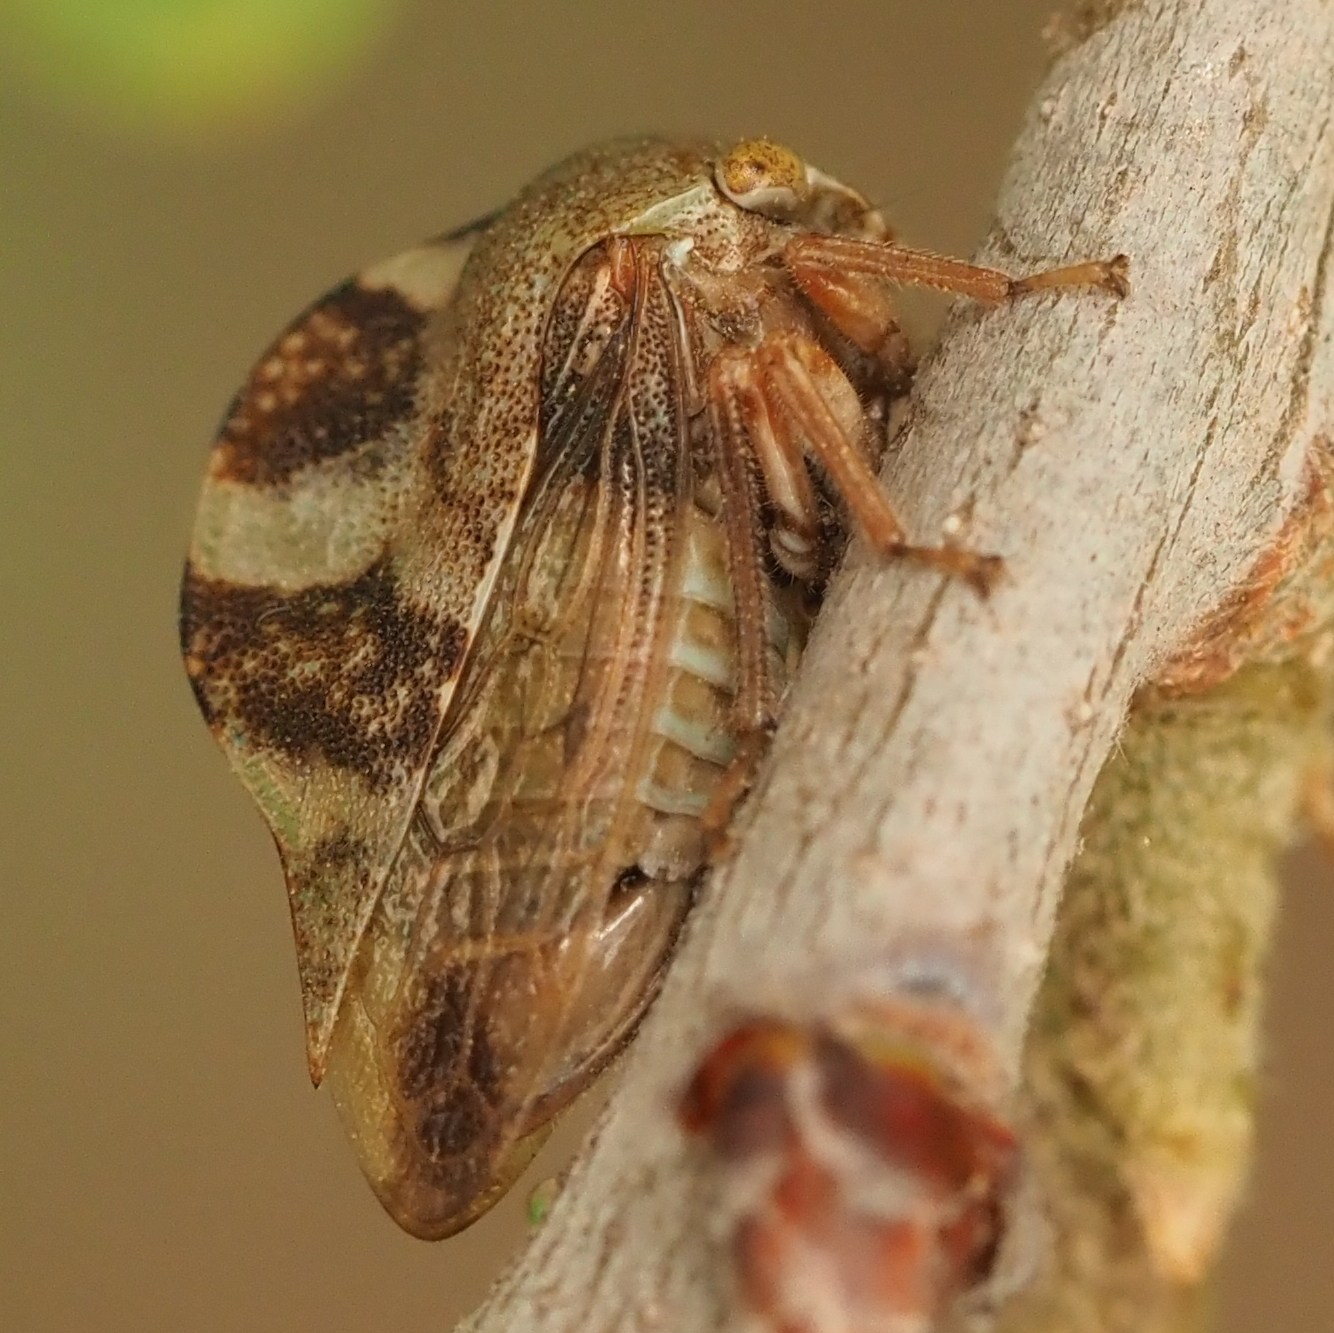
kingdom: Animalia
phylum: Arthropoda
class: Insecta
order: Hemiptera
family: Membracidae
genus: Cyrtolobus
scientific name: Cyrtolobus tuberosa
